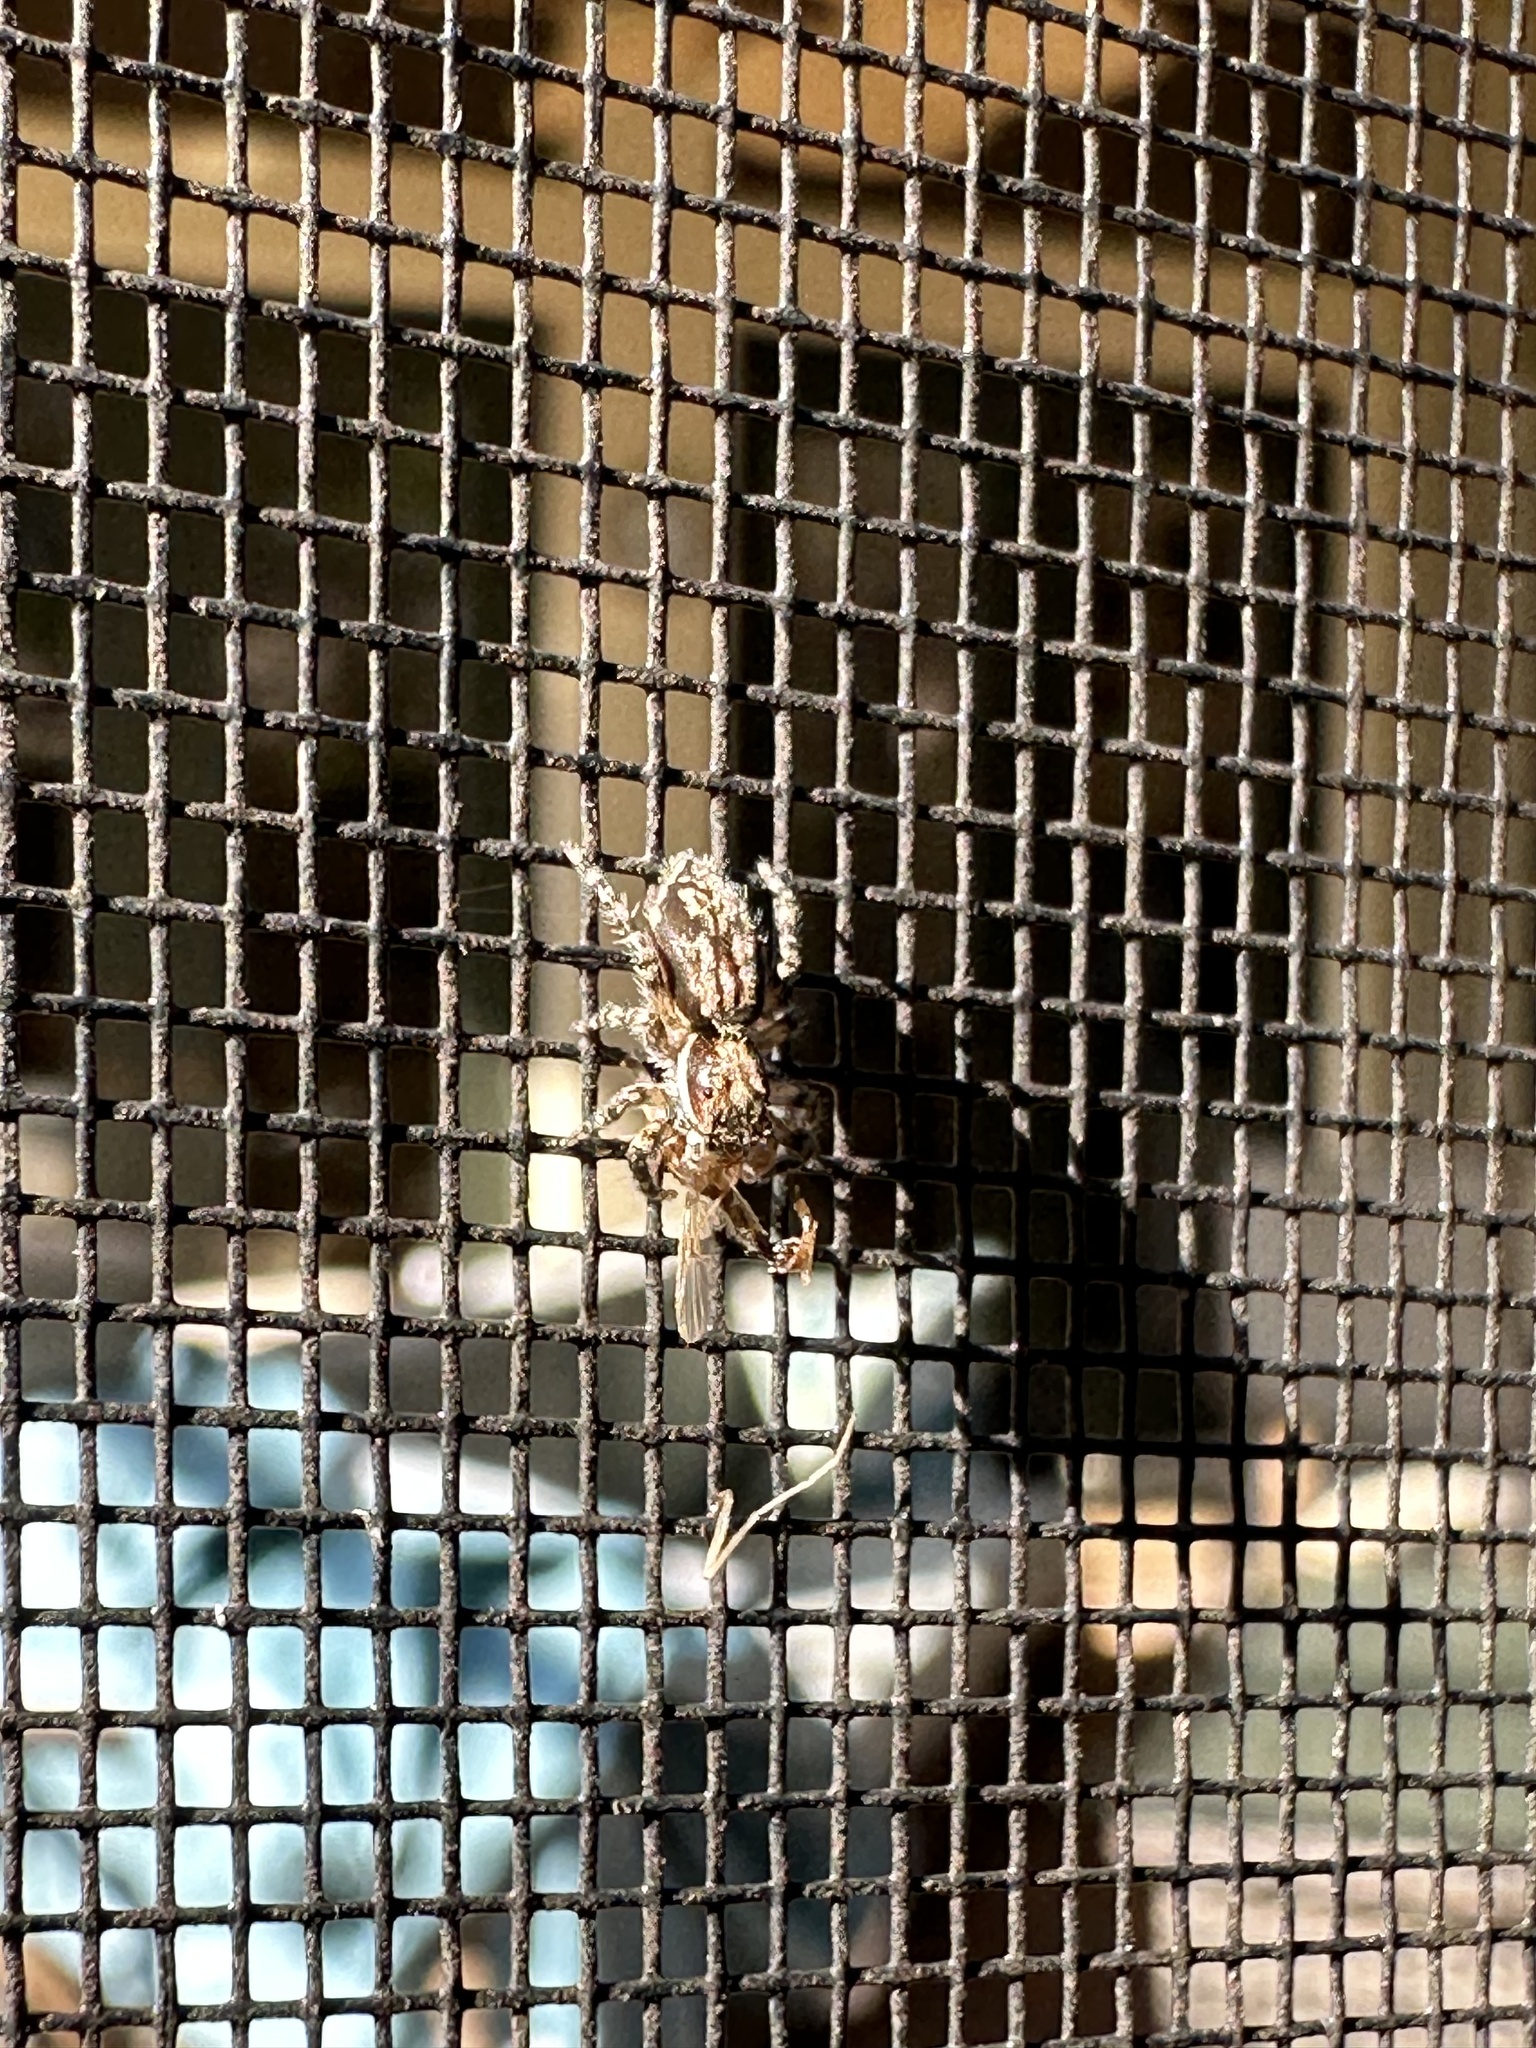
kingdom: Animalia
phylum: Arthropoda
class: Arachnida
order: Araneae
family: Salticidae
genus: Menemerus
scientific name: Menemerus bivittatus
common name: Gray wall jumper
